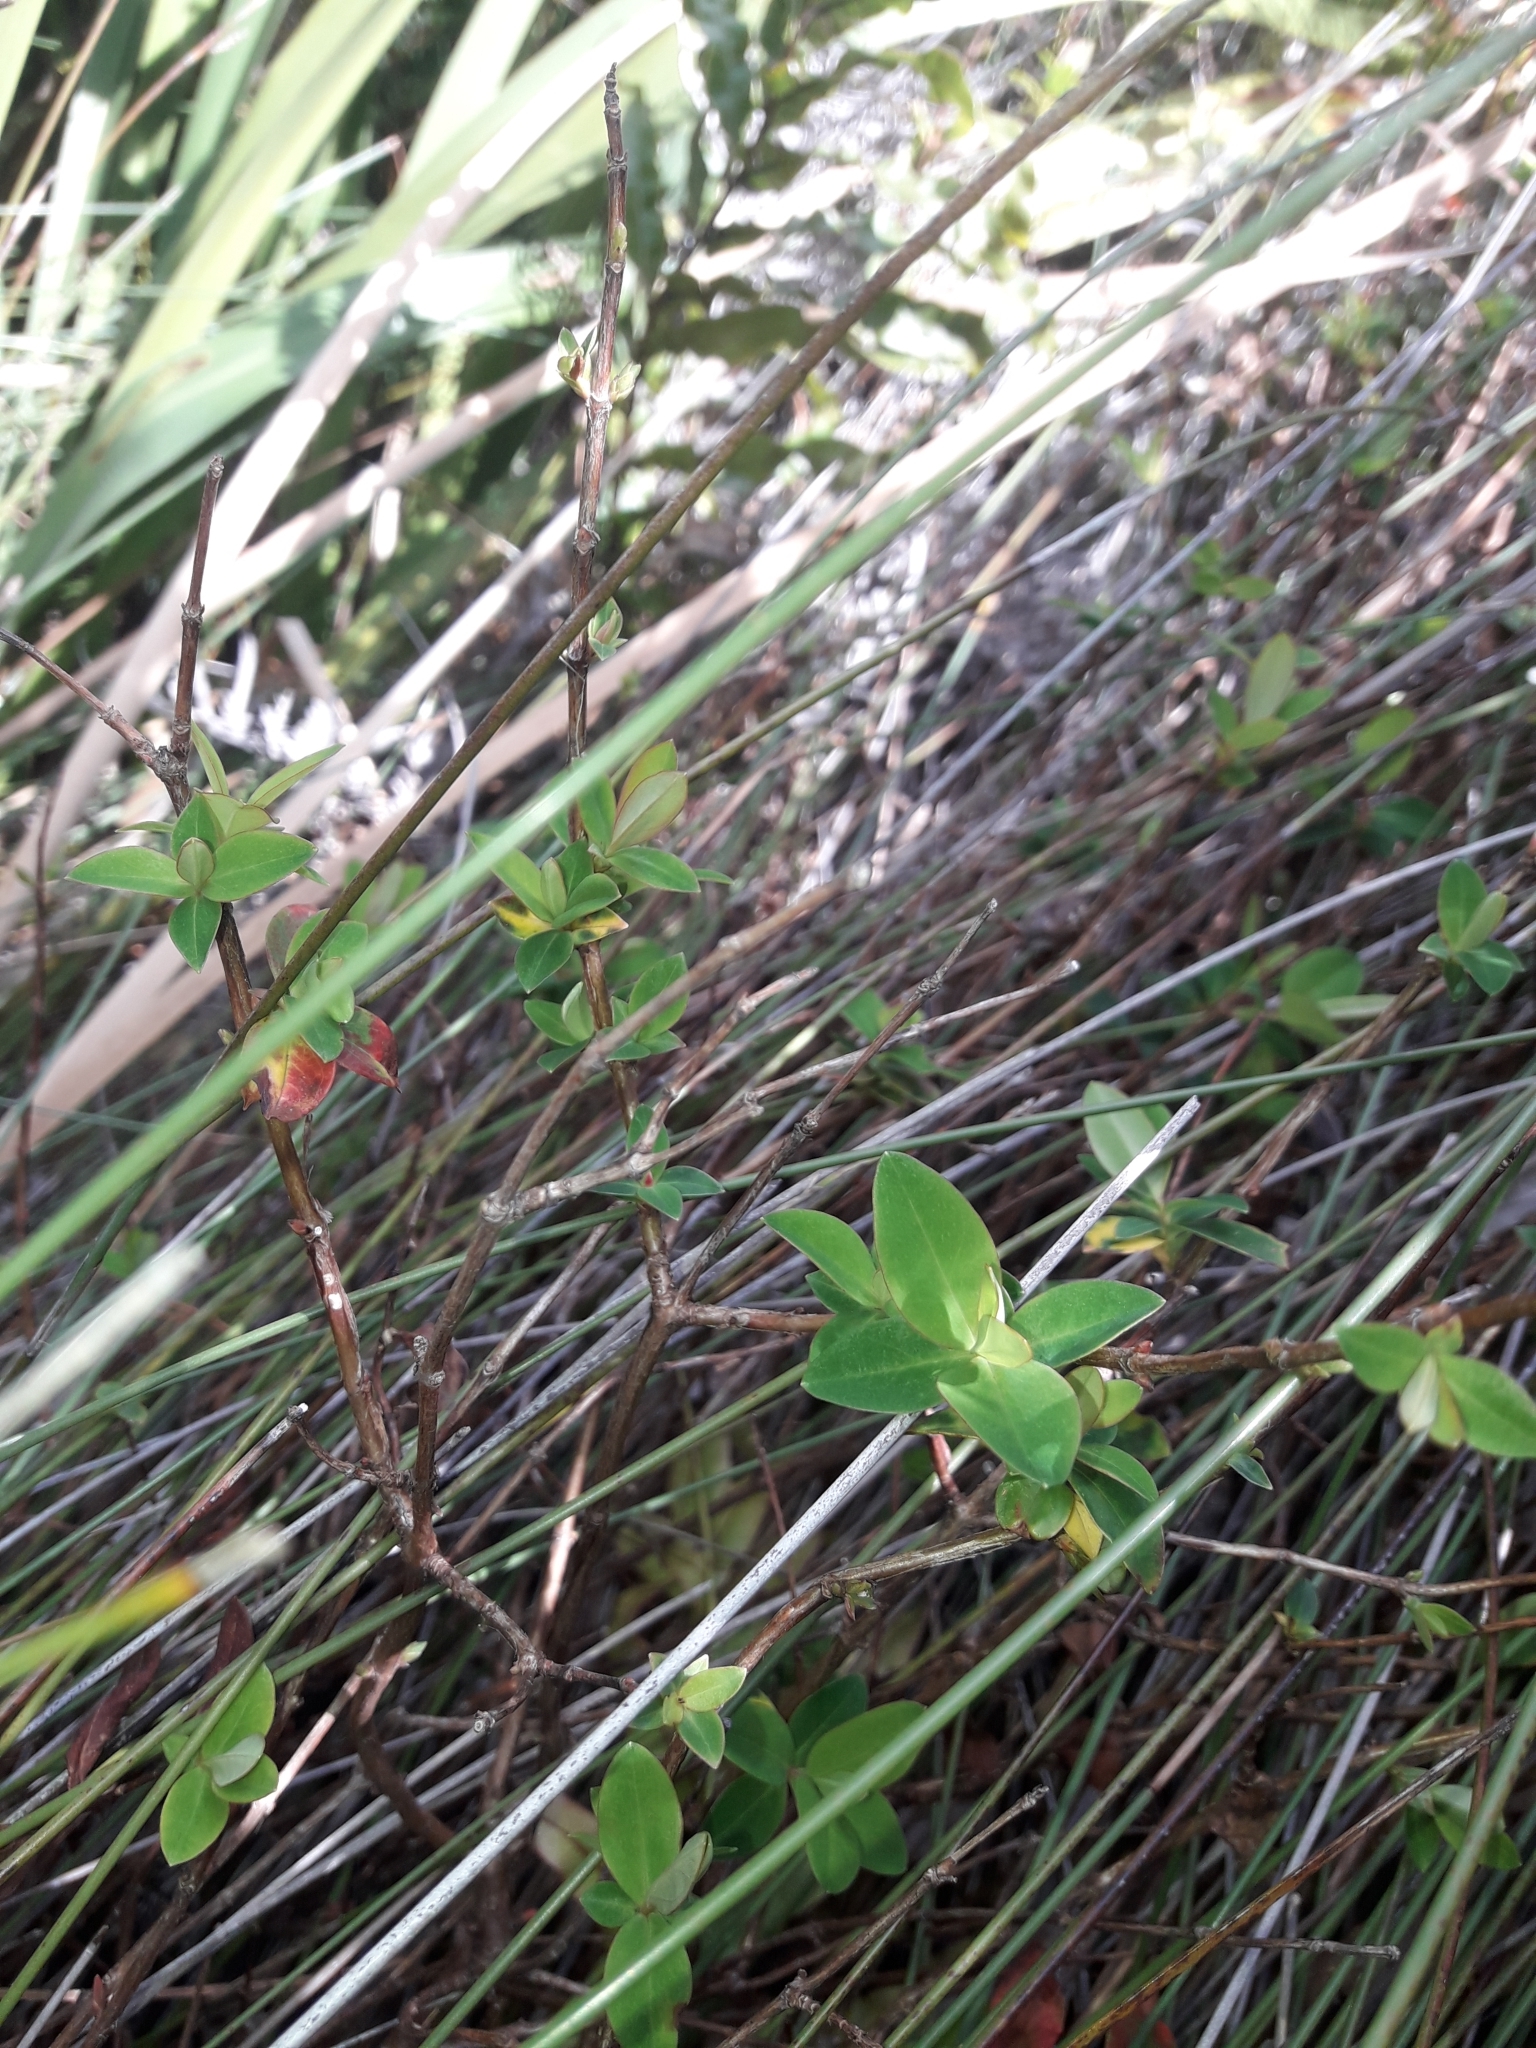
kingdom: Plantae
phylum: Tracheophyta
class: Magnoliopsida
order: Malpighiales
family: Hypericaceae
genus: Hypericum
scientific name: Hypericum calycinum
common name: Rose-of-sharon
